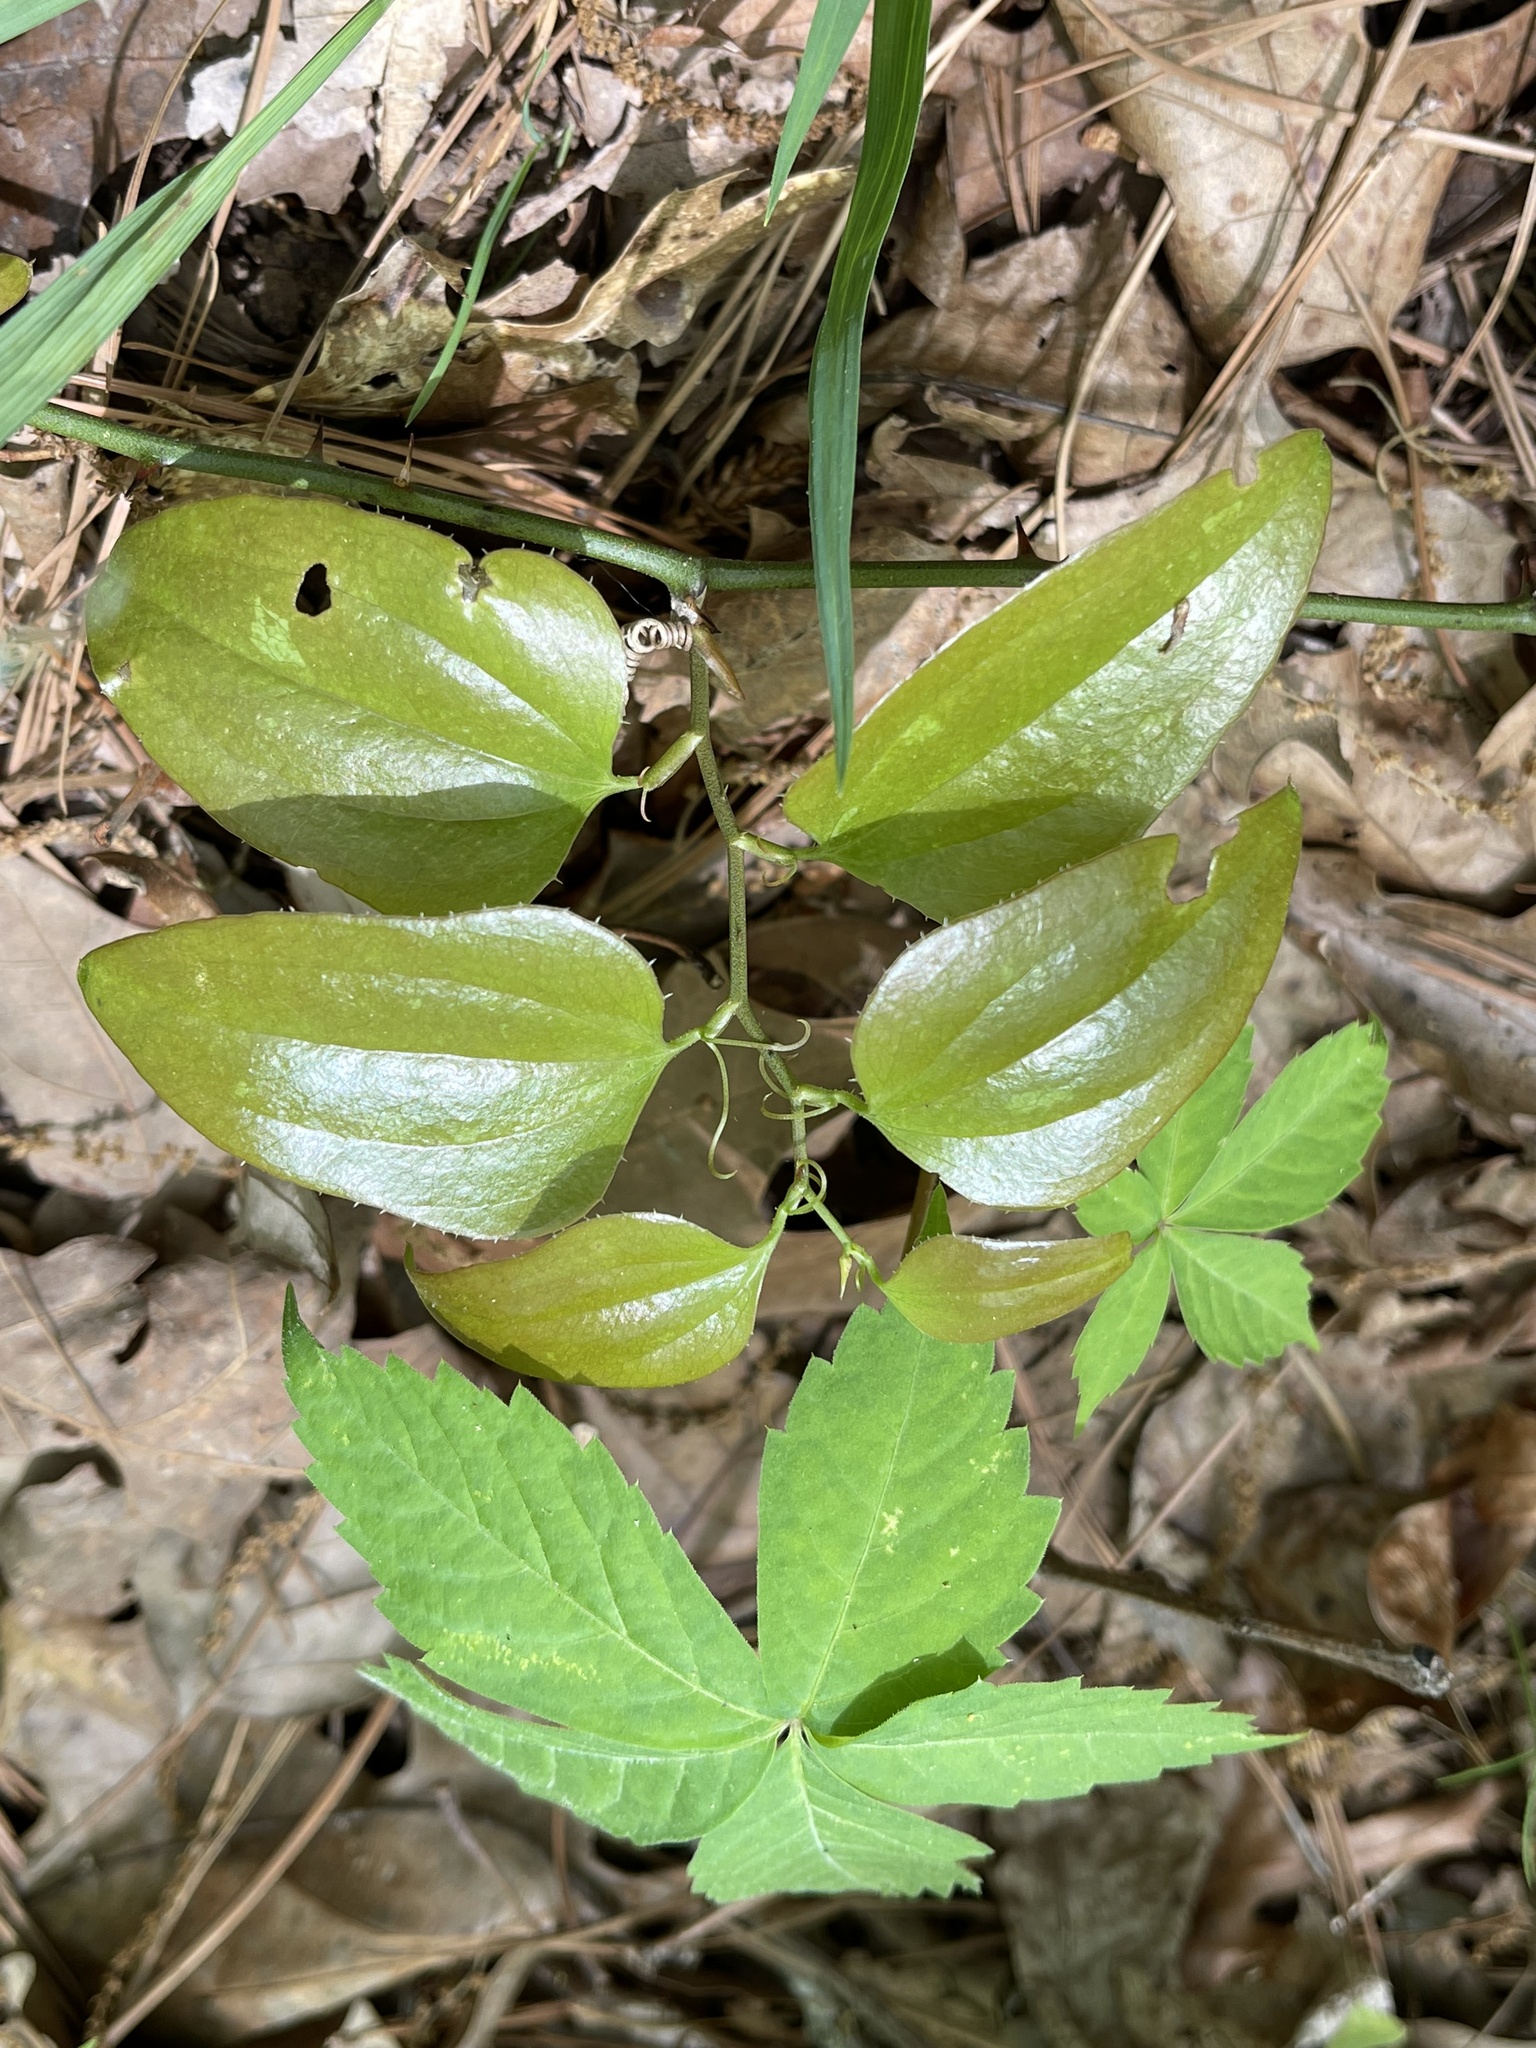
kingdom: Plantae
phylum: Tracheophyta
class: Liliopsida
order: Liliales
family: Smilacaceae
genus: Smilax
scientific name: Smilax bona-nox
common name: Catbrier
